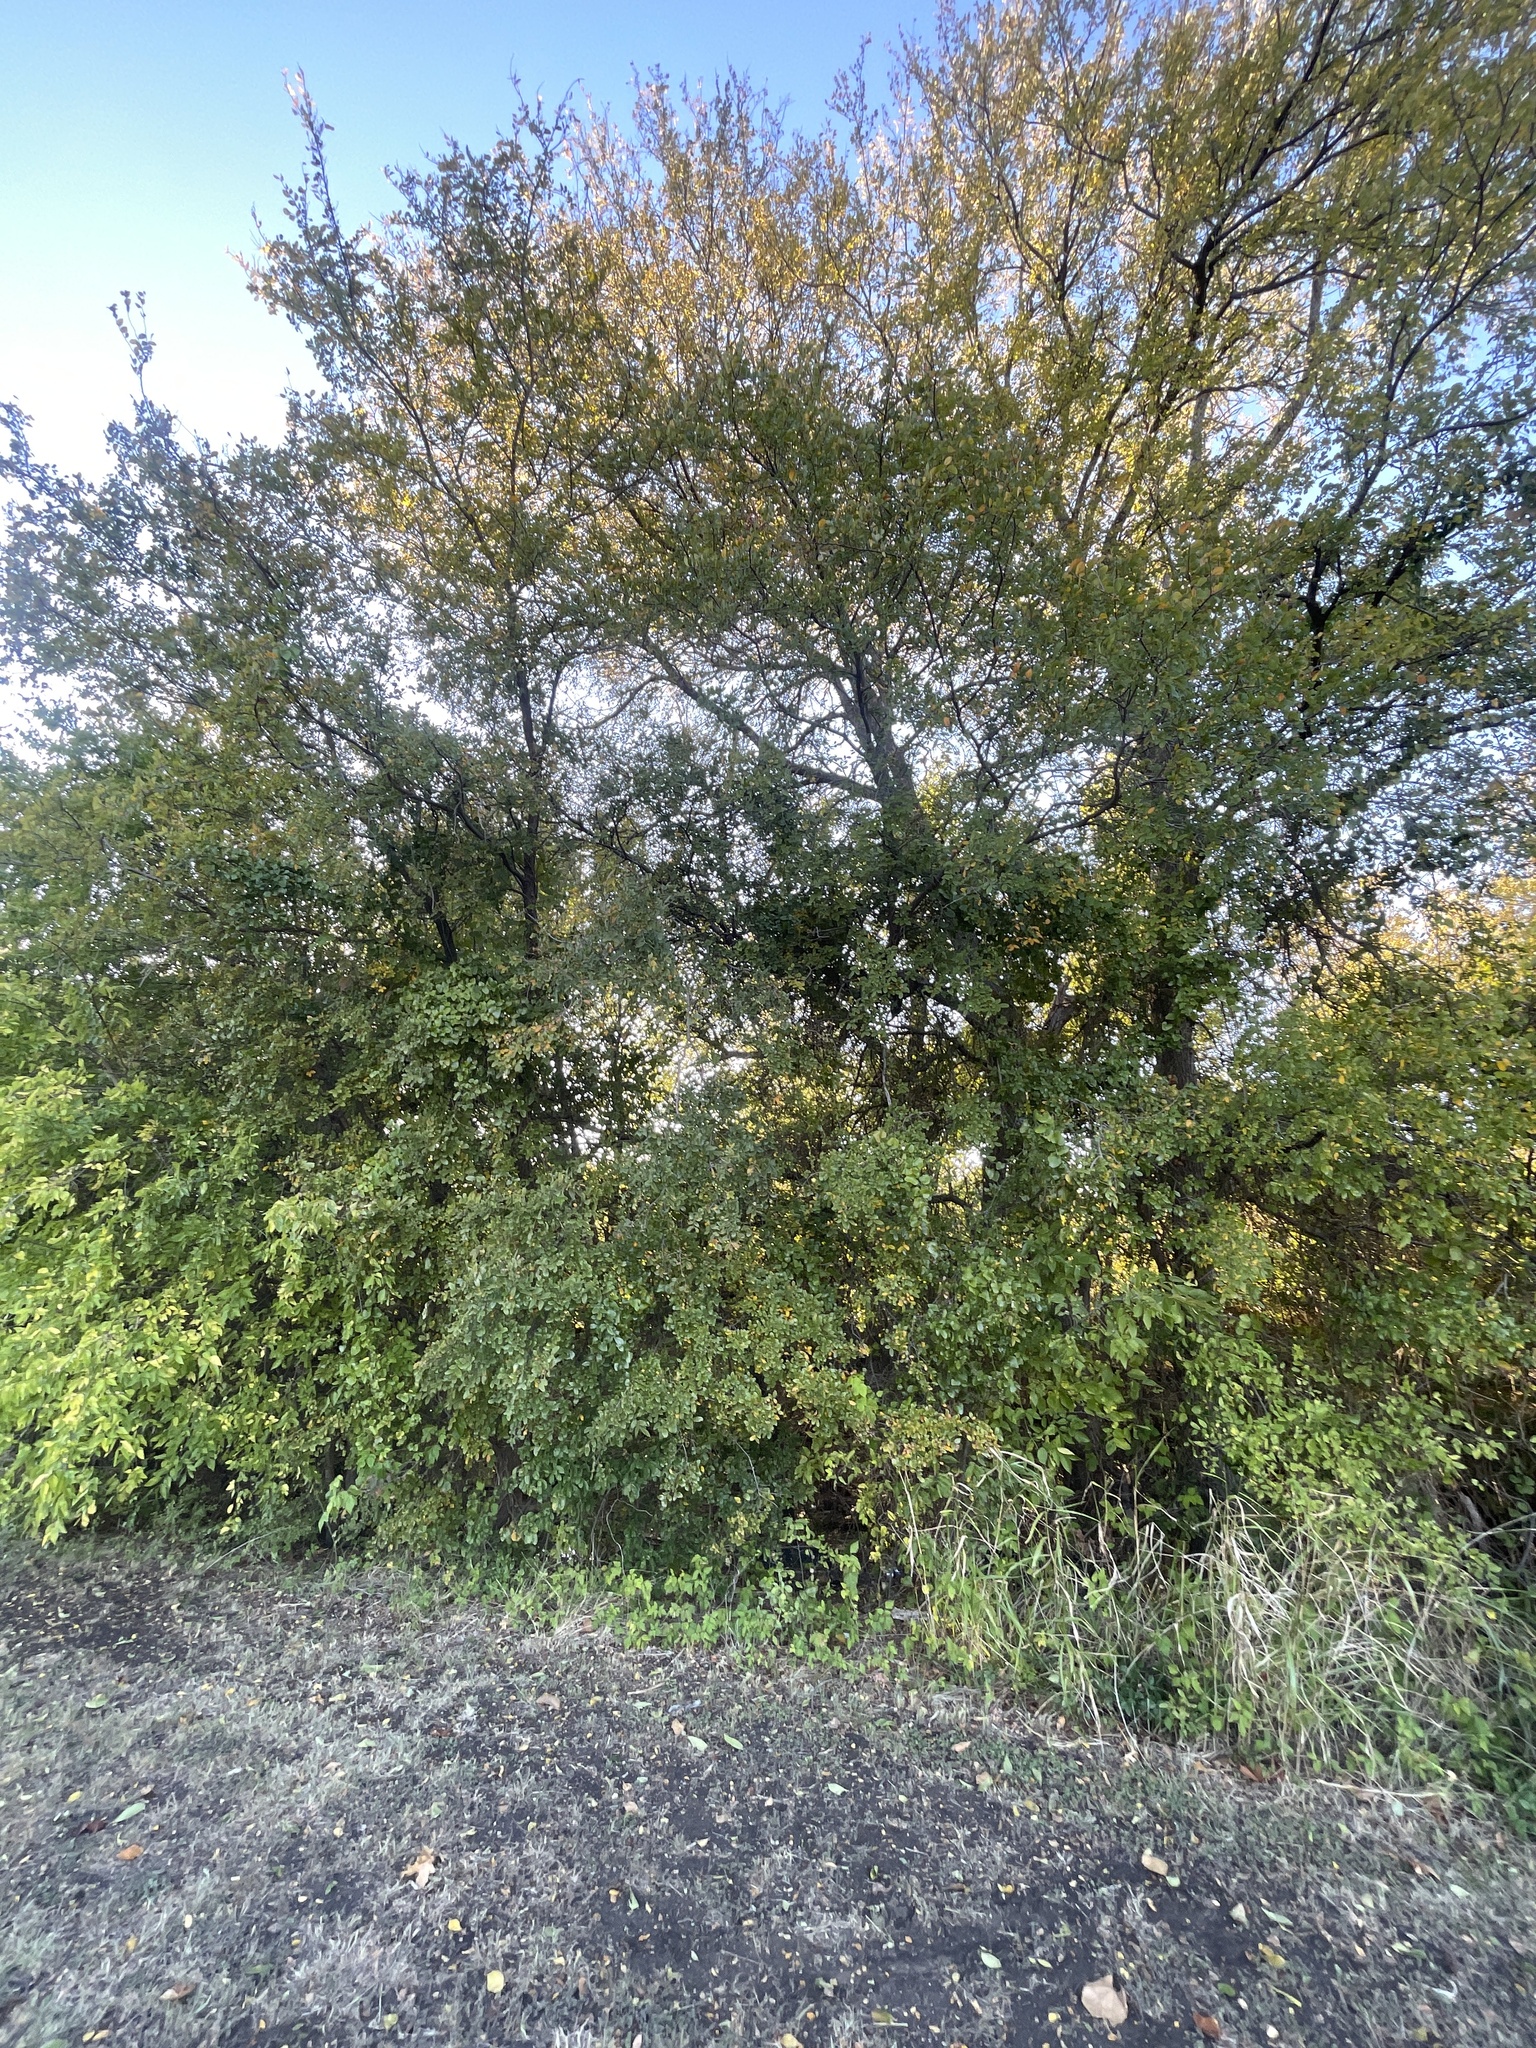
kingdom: Plantae
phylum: Tracheophyta
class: Magnoliopsida
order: Rosales
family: Ulmaceae
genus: Ulmus
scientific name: Ulmus crassifolia
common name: Basket elm
